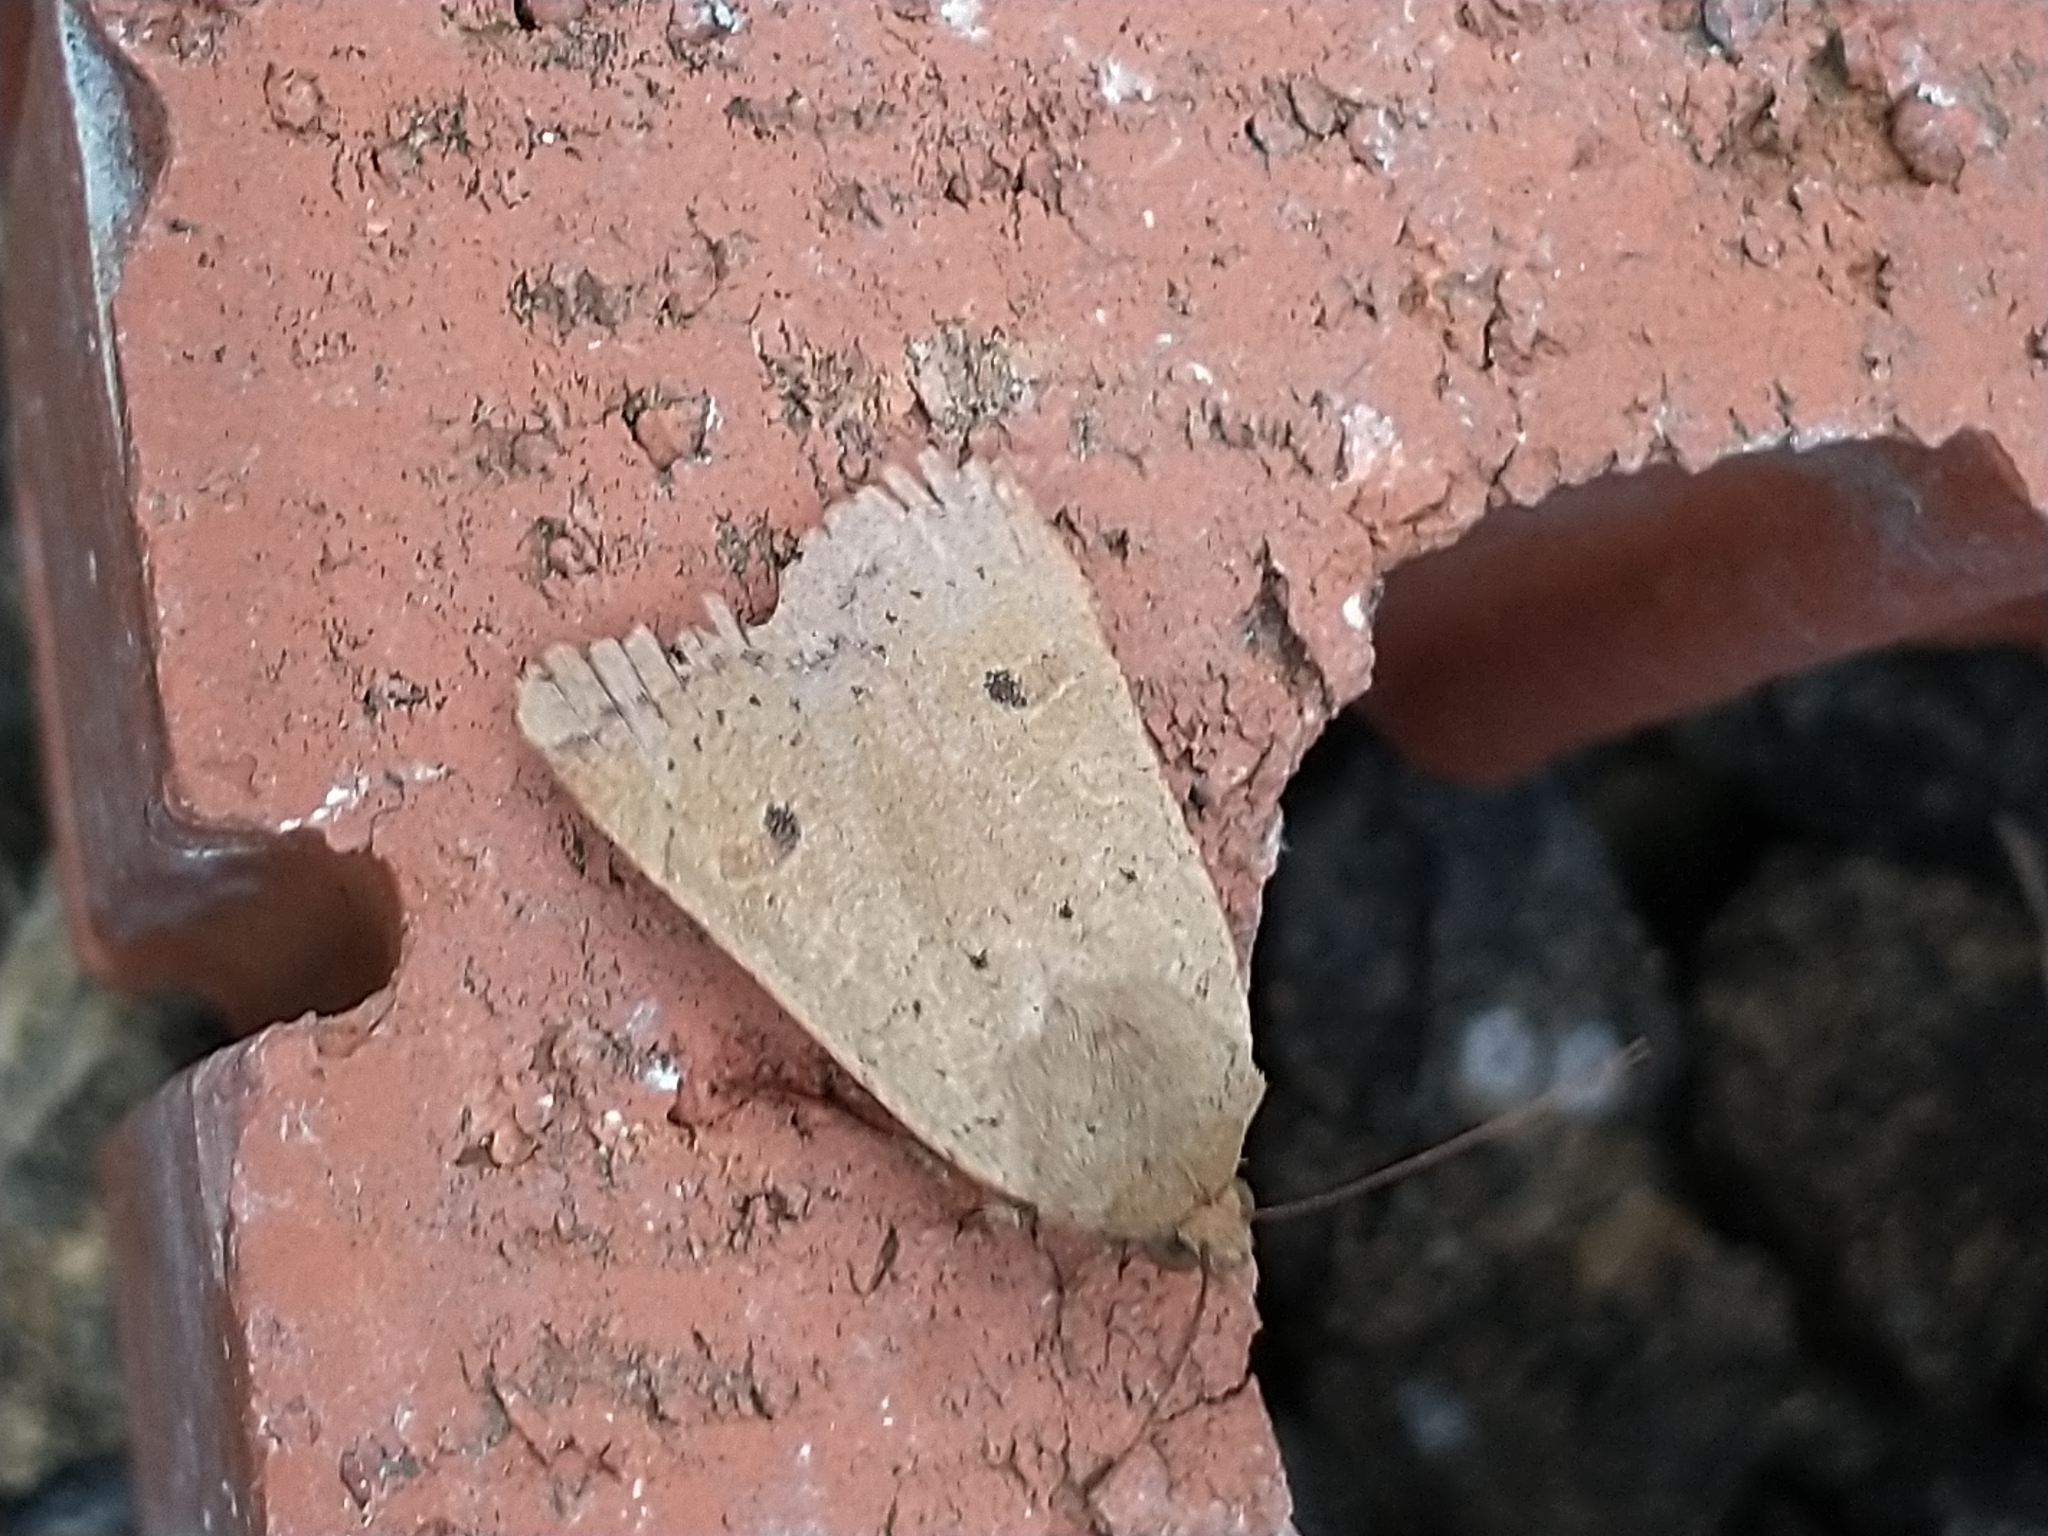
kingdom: Animalia
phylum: Arthropoda
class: Insecta
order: Lepidoptera
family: Noctuidae
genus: Noctua
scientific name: Noctua comes
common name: Lesser yellow underwing
